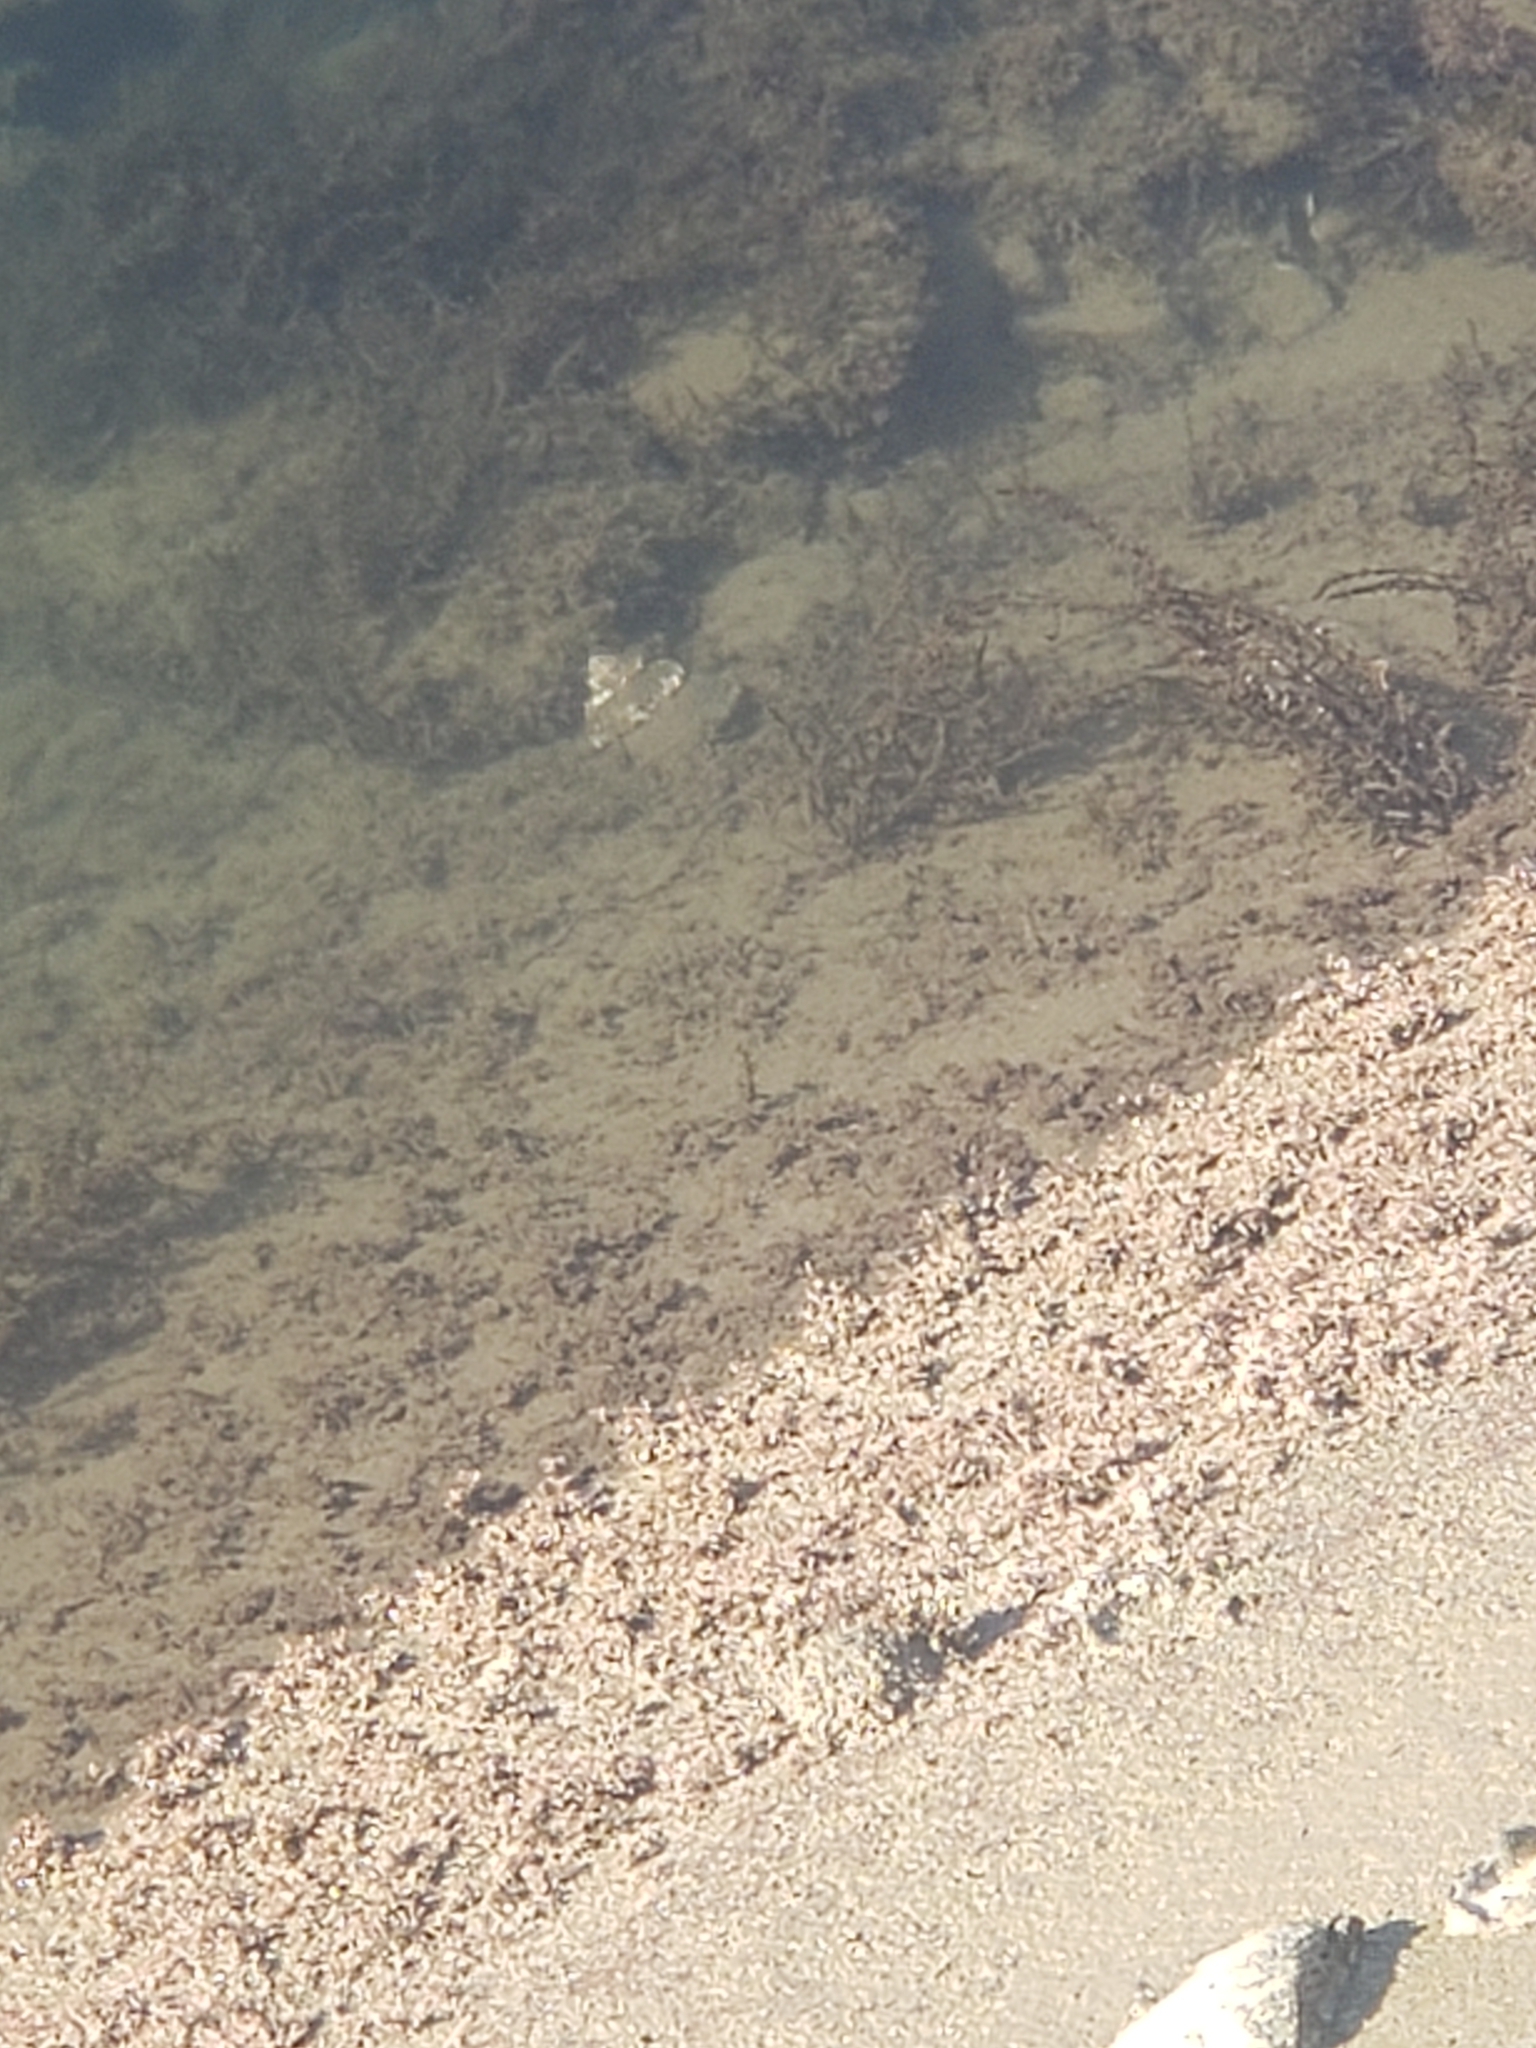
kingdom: Animalia
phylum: Mollusca
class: Gastropoda
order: Trochida
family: Turbinidae
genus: Megastraea
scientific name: Megastraea undosa
